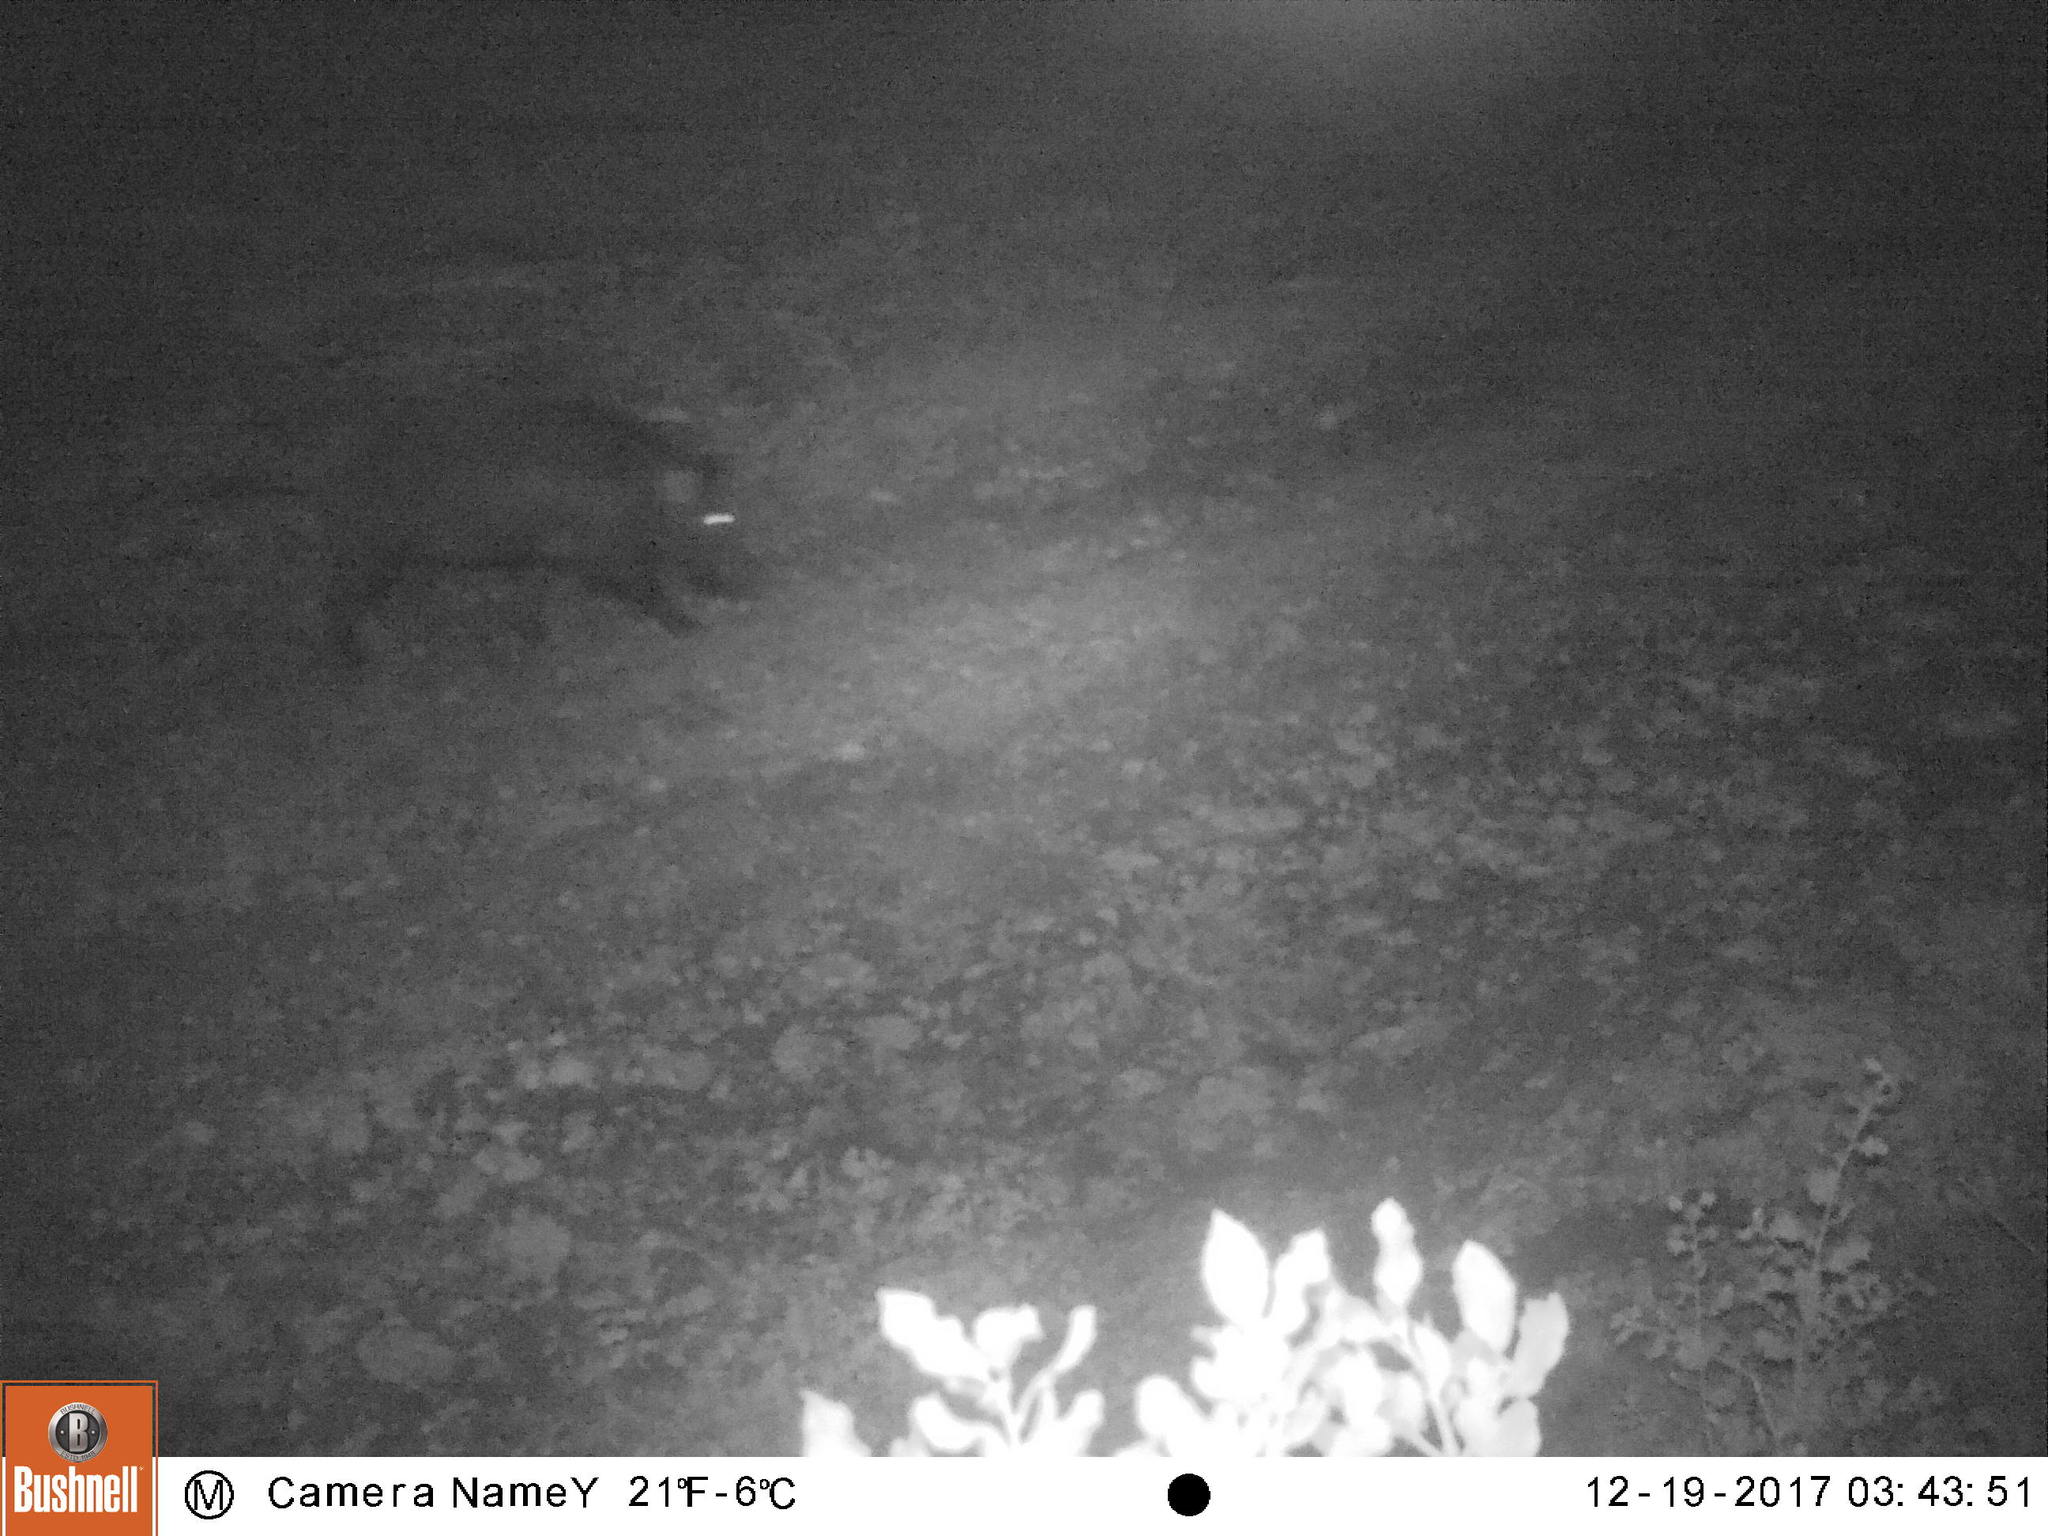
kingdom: Animalia
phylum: Chordata
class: Mammalia
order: Artiodactyla
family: Suidae
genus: Sus
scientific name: Sus scrofa
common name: Wild boar
